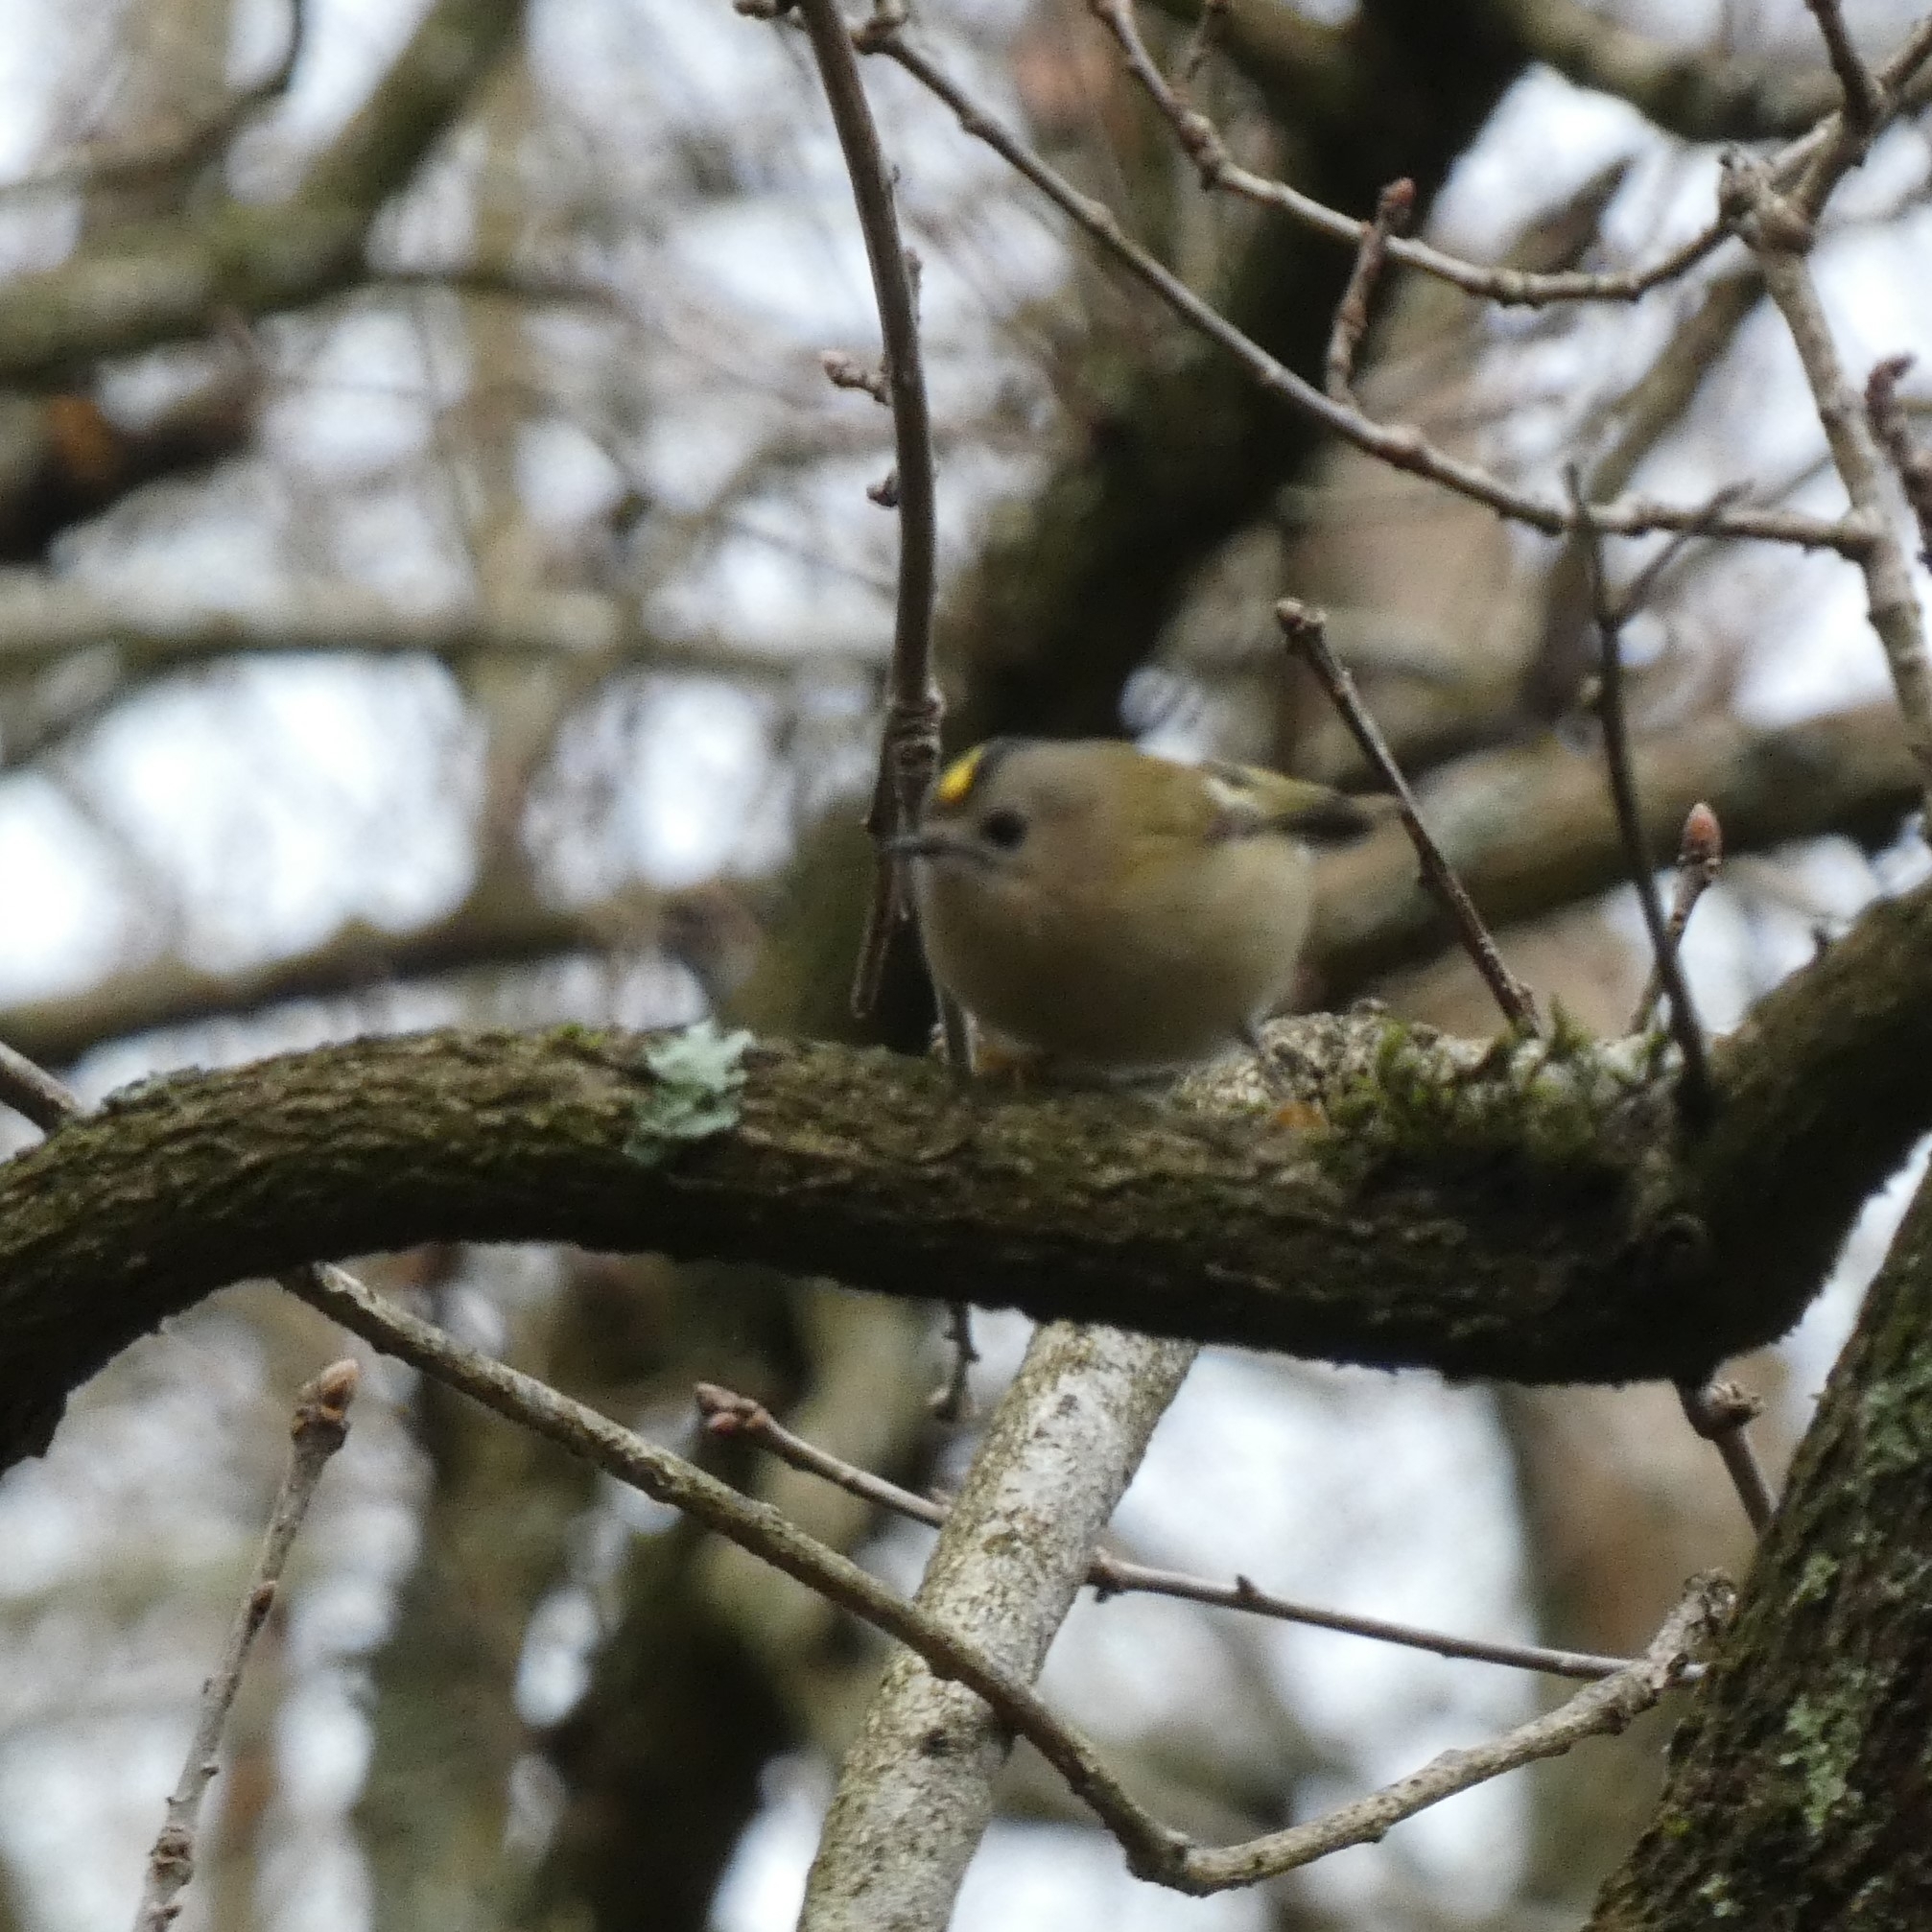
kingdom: Animalia
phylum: Chordata
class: Aves
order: Passeriformes
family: Regulidae
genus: Regulus
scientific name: Regulus regulus
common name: Goldcrest
